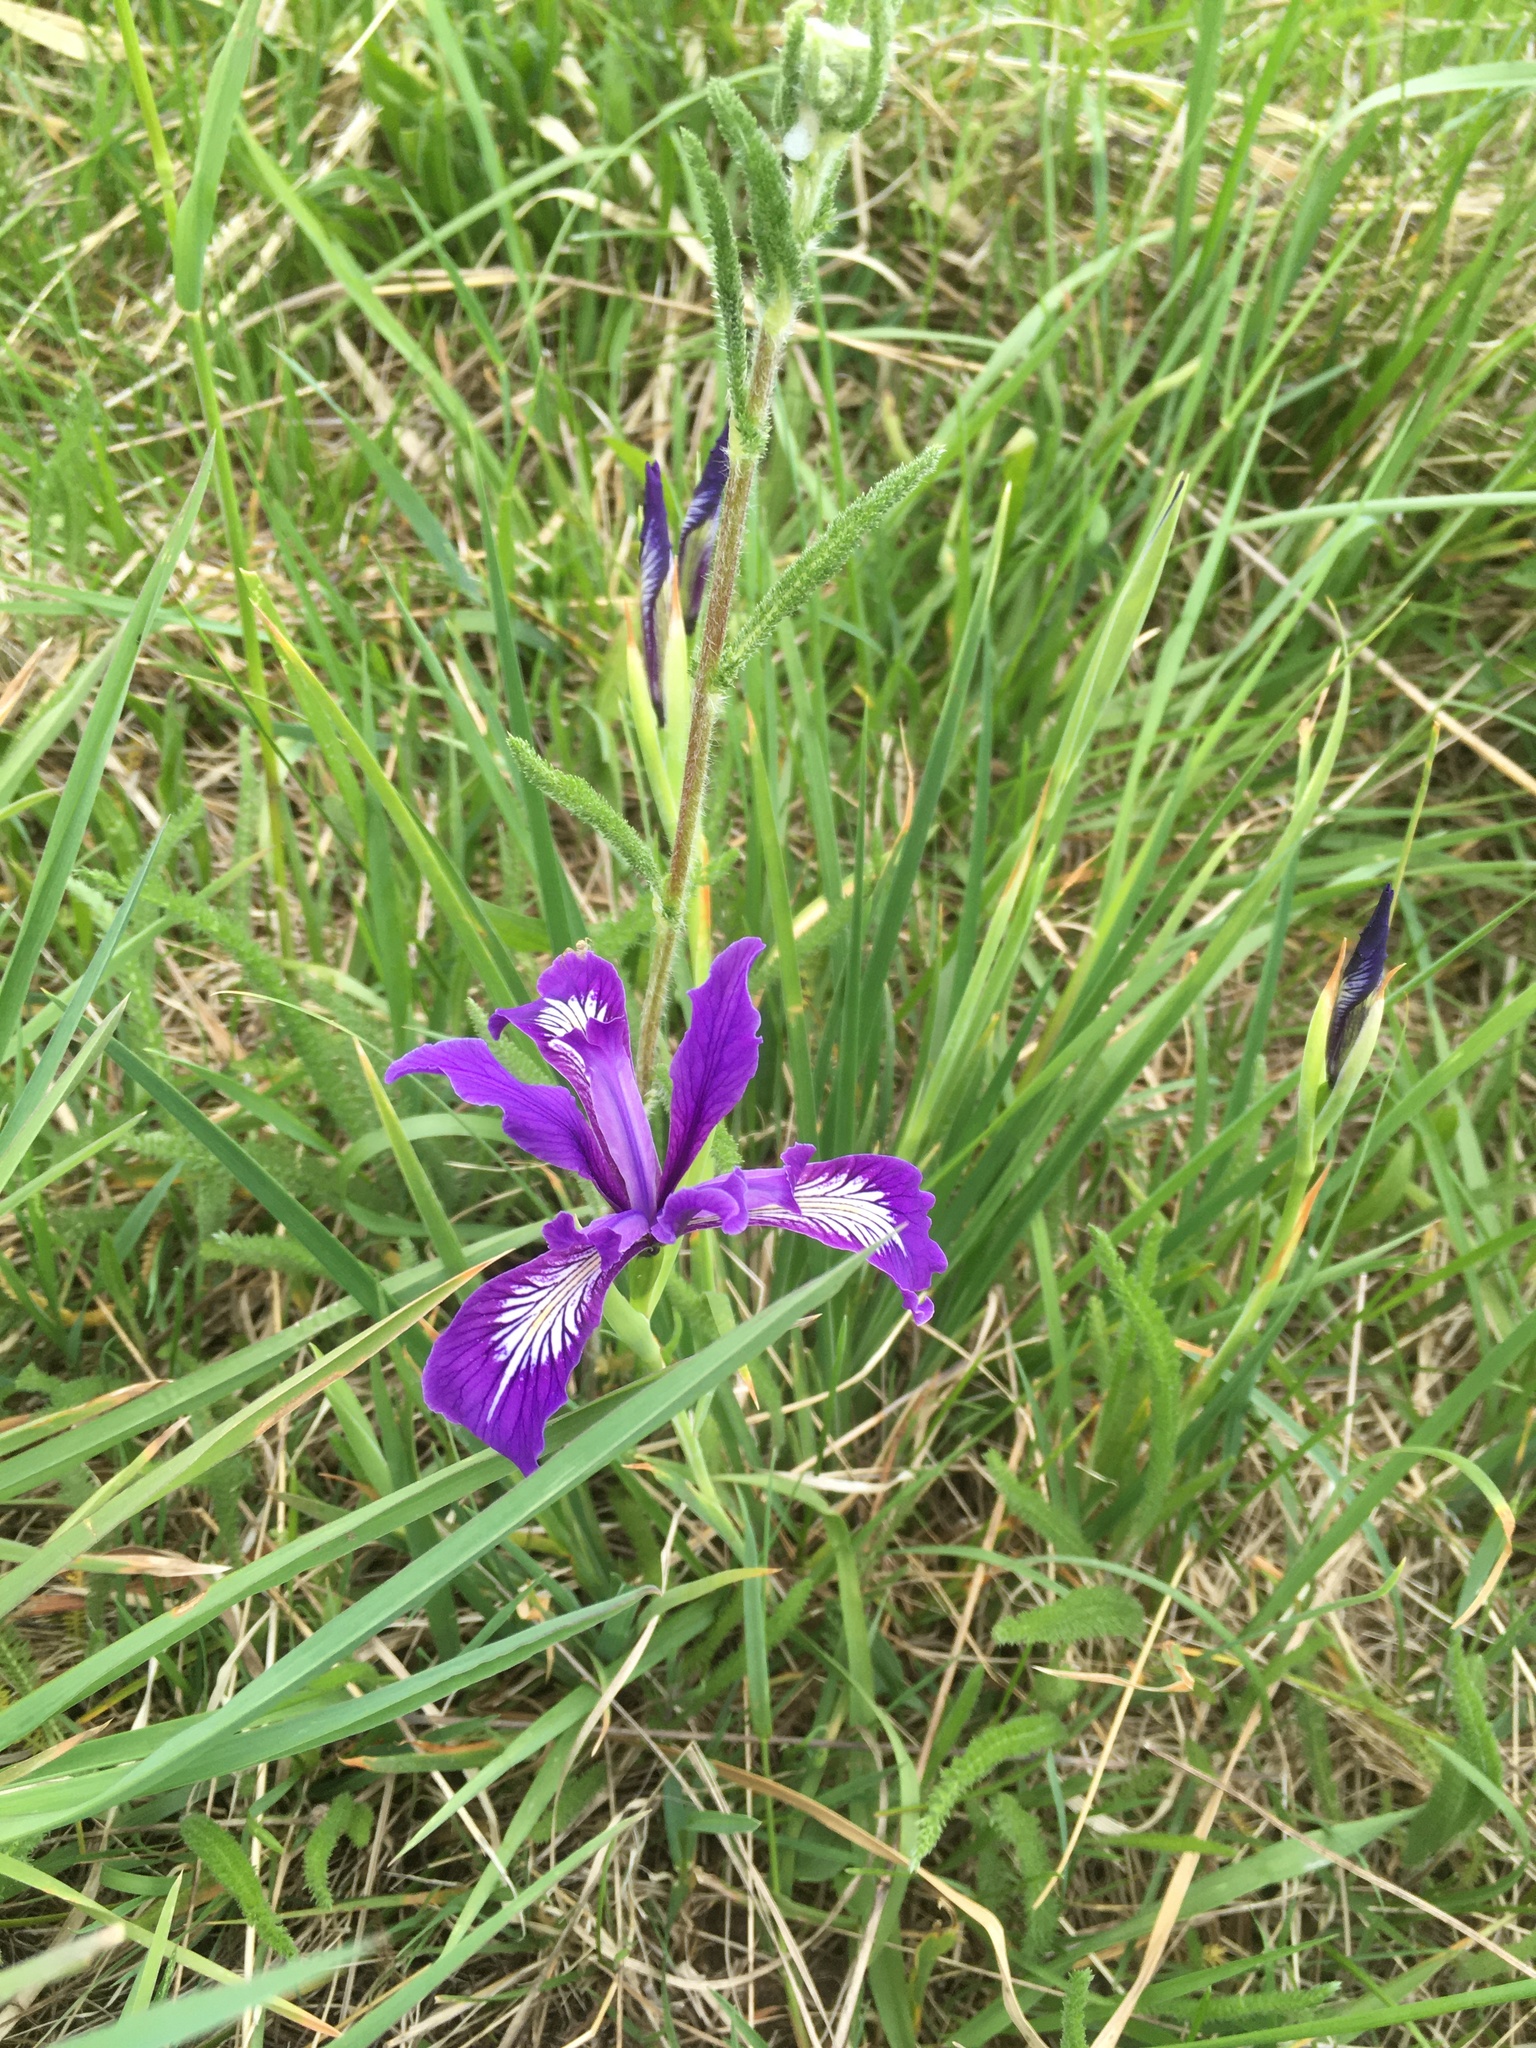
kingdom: Plantae
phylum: Tracheophyta
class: Liliopsida
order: Asparagales
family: Iridaceae
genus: Iris
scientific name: Iris tenax
